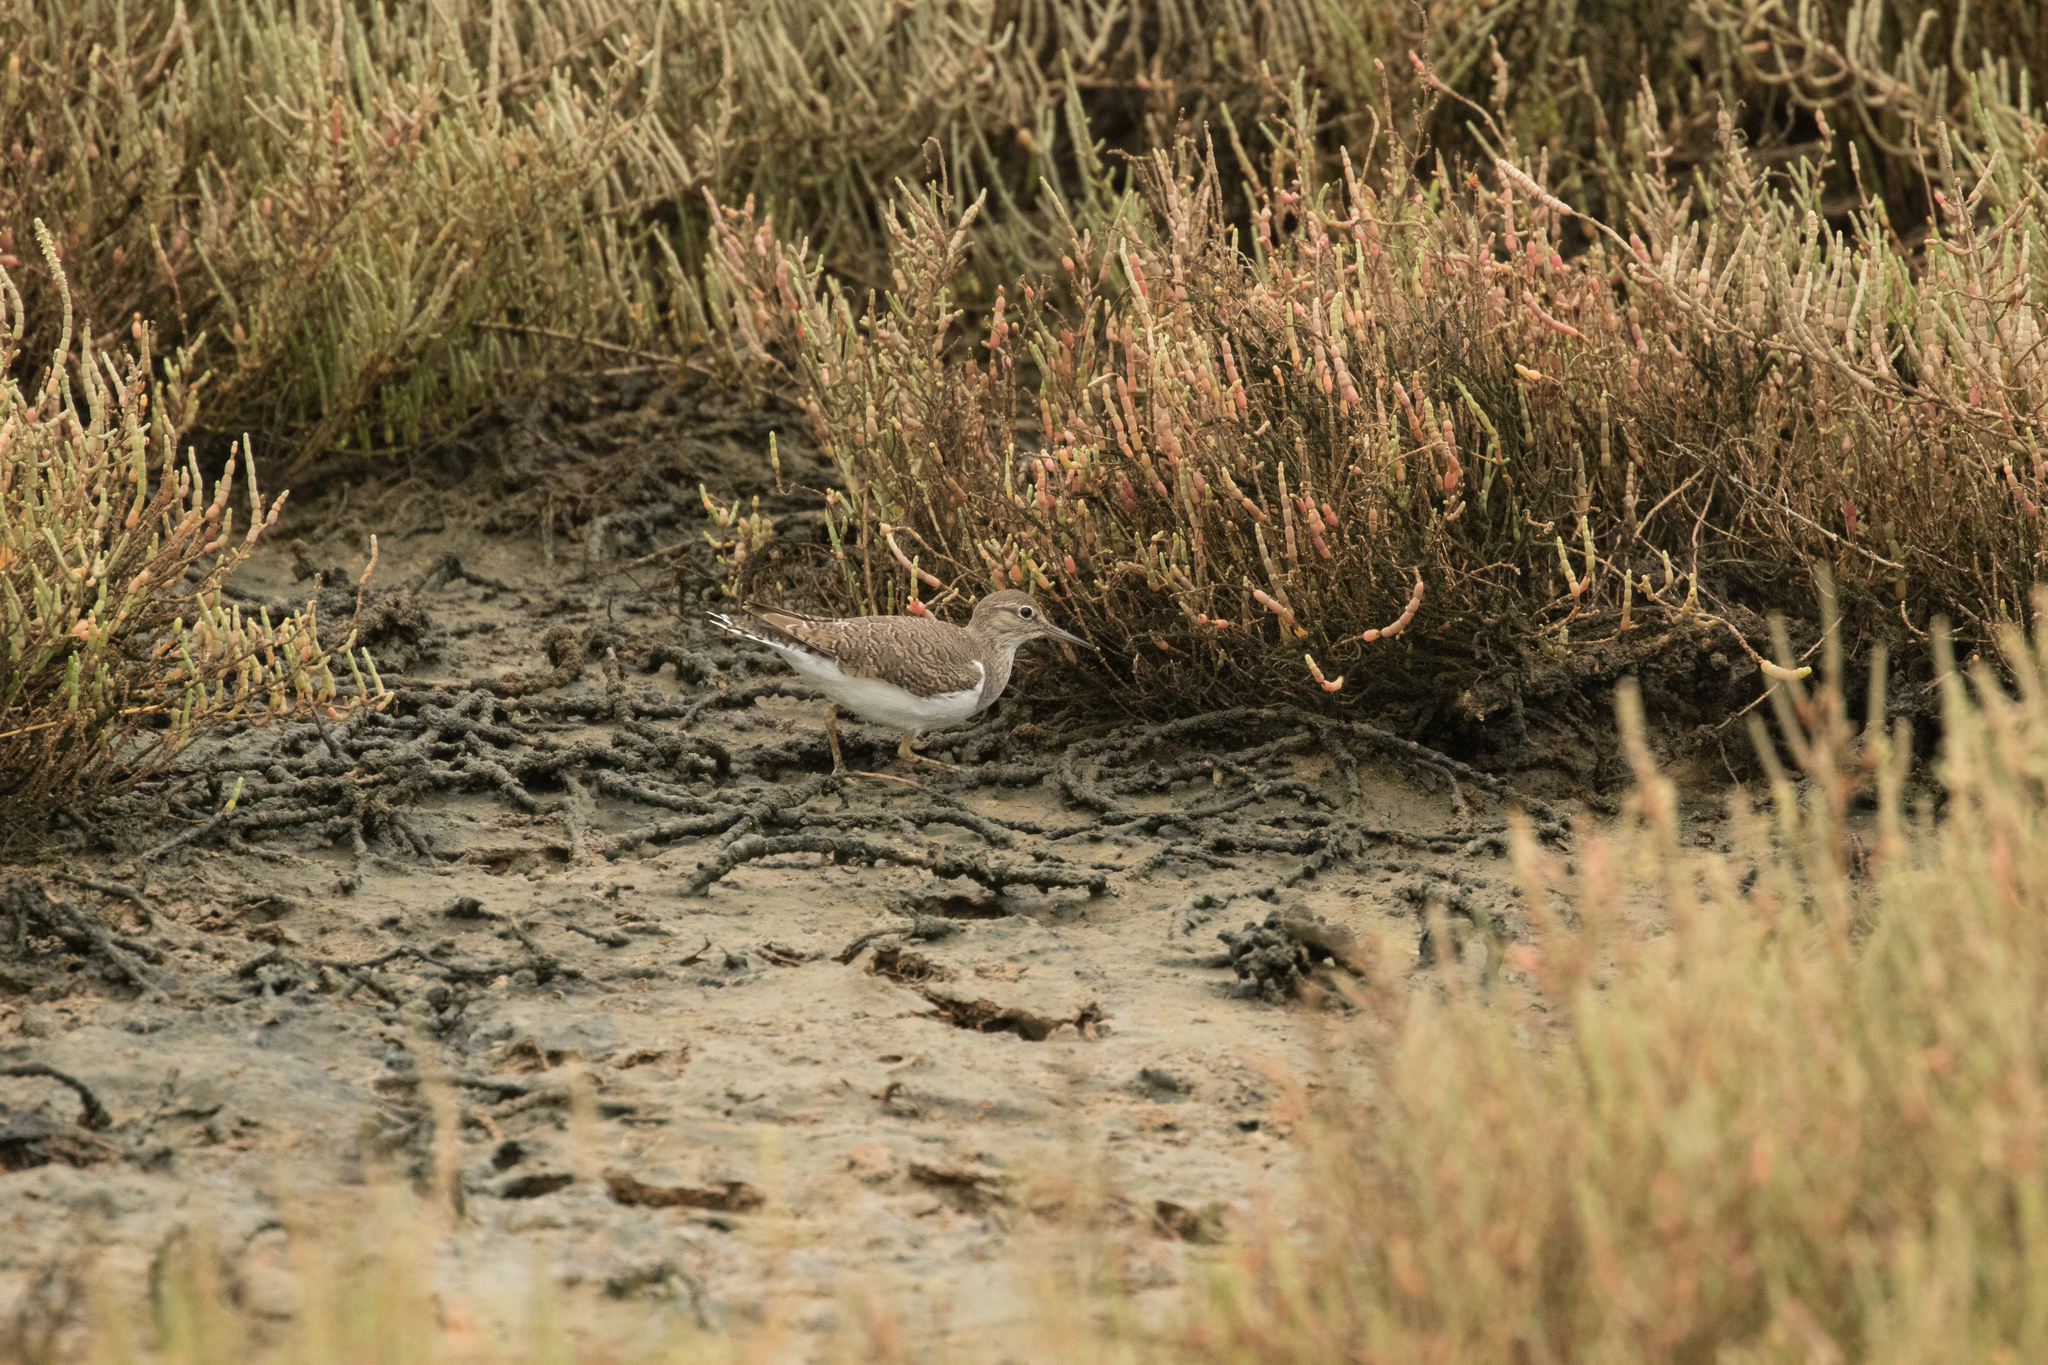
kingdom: Animalia
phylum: Chordata
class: Aves
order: Charadriiformes
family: Scolopacidae
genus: Actitis
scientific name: Actitis hypoleucos
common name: Common sandpiper
